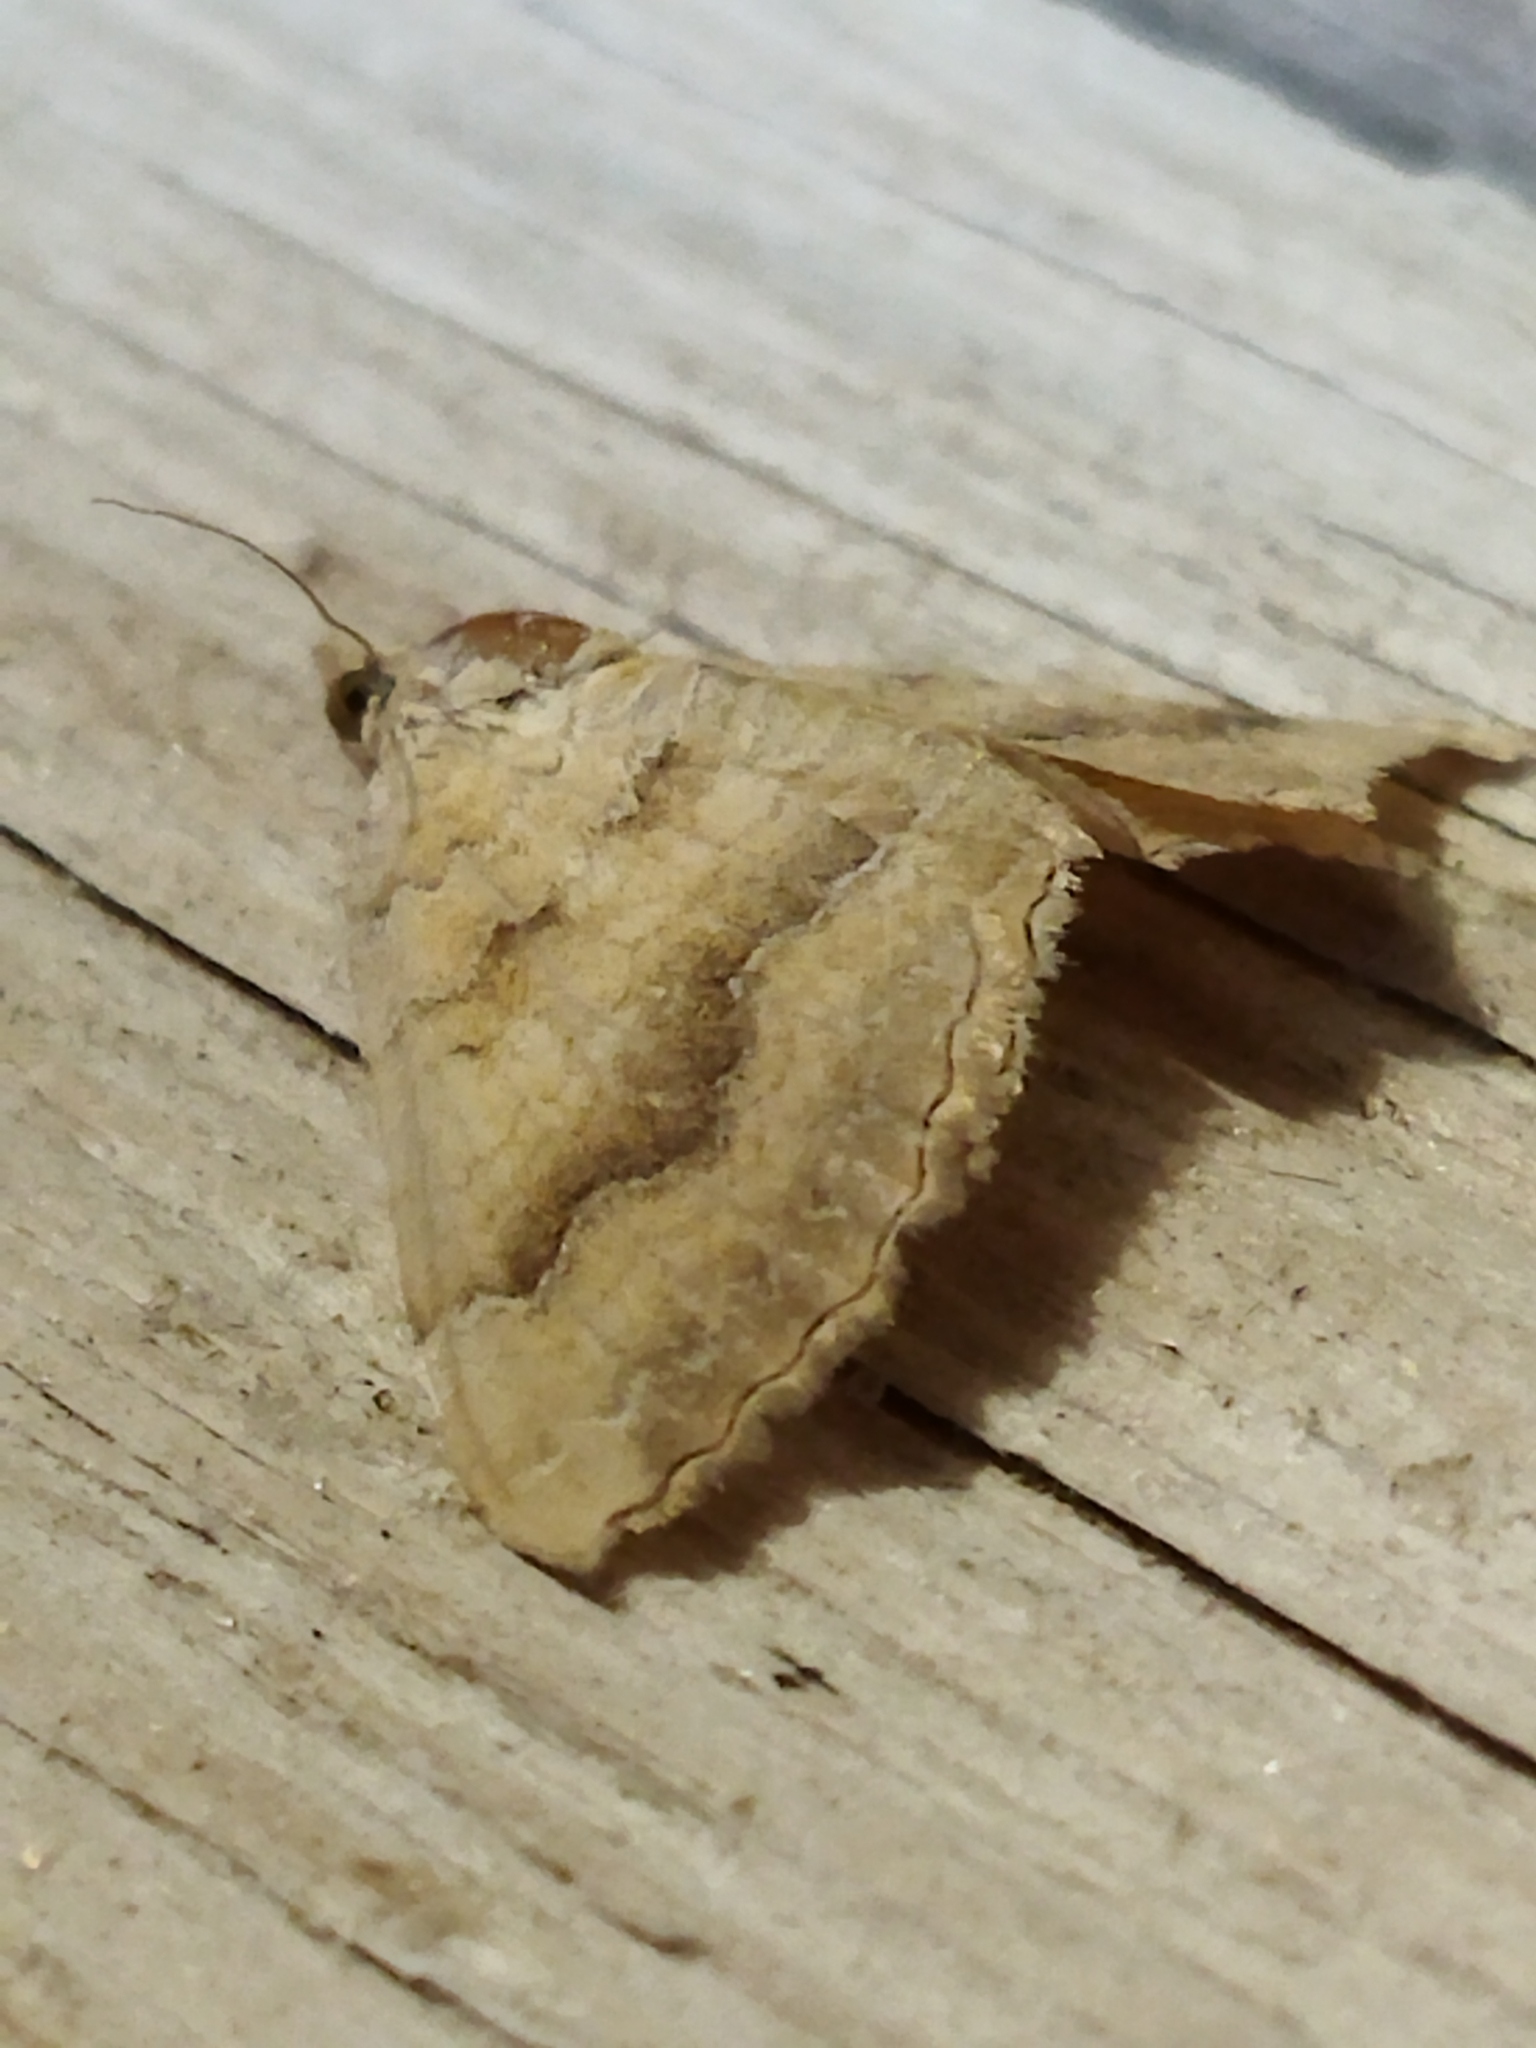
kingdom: Animalia
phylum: Arthropoda
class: Insecta
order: Lepidoptera
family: Geometridae
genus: Camptogramma
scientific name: Camptogramma bilineata
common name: Yellow shell
